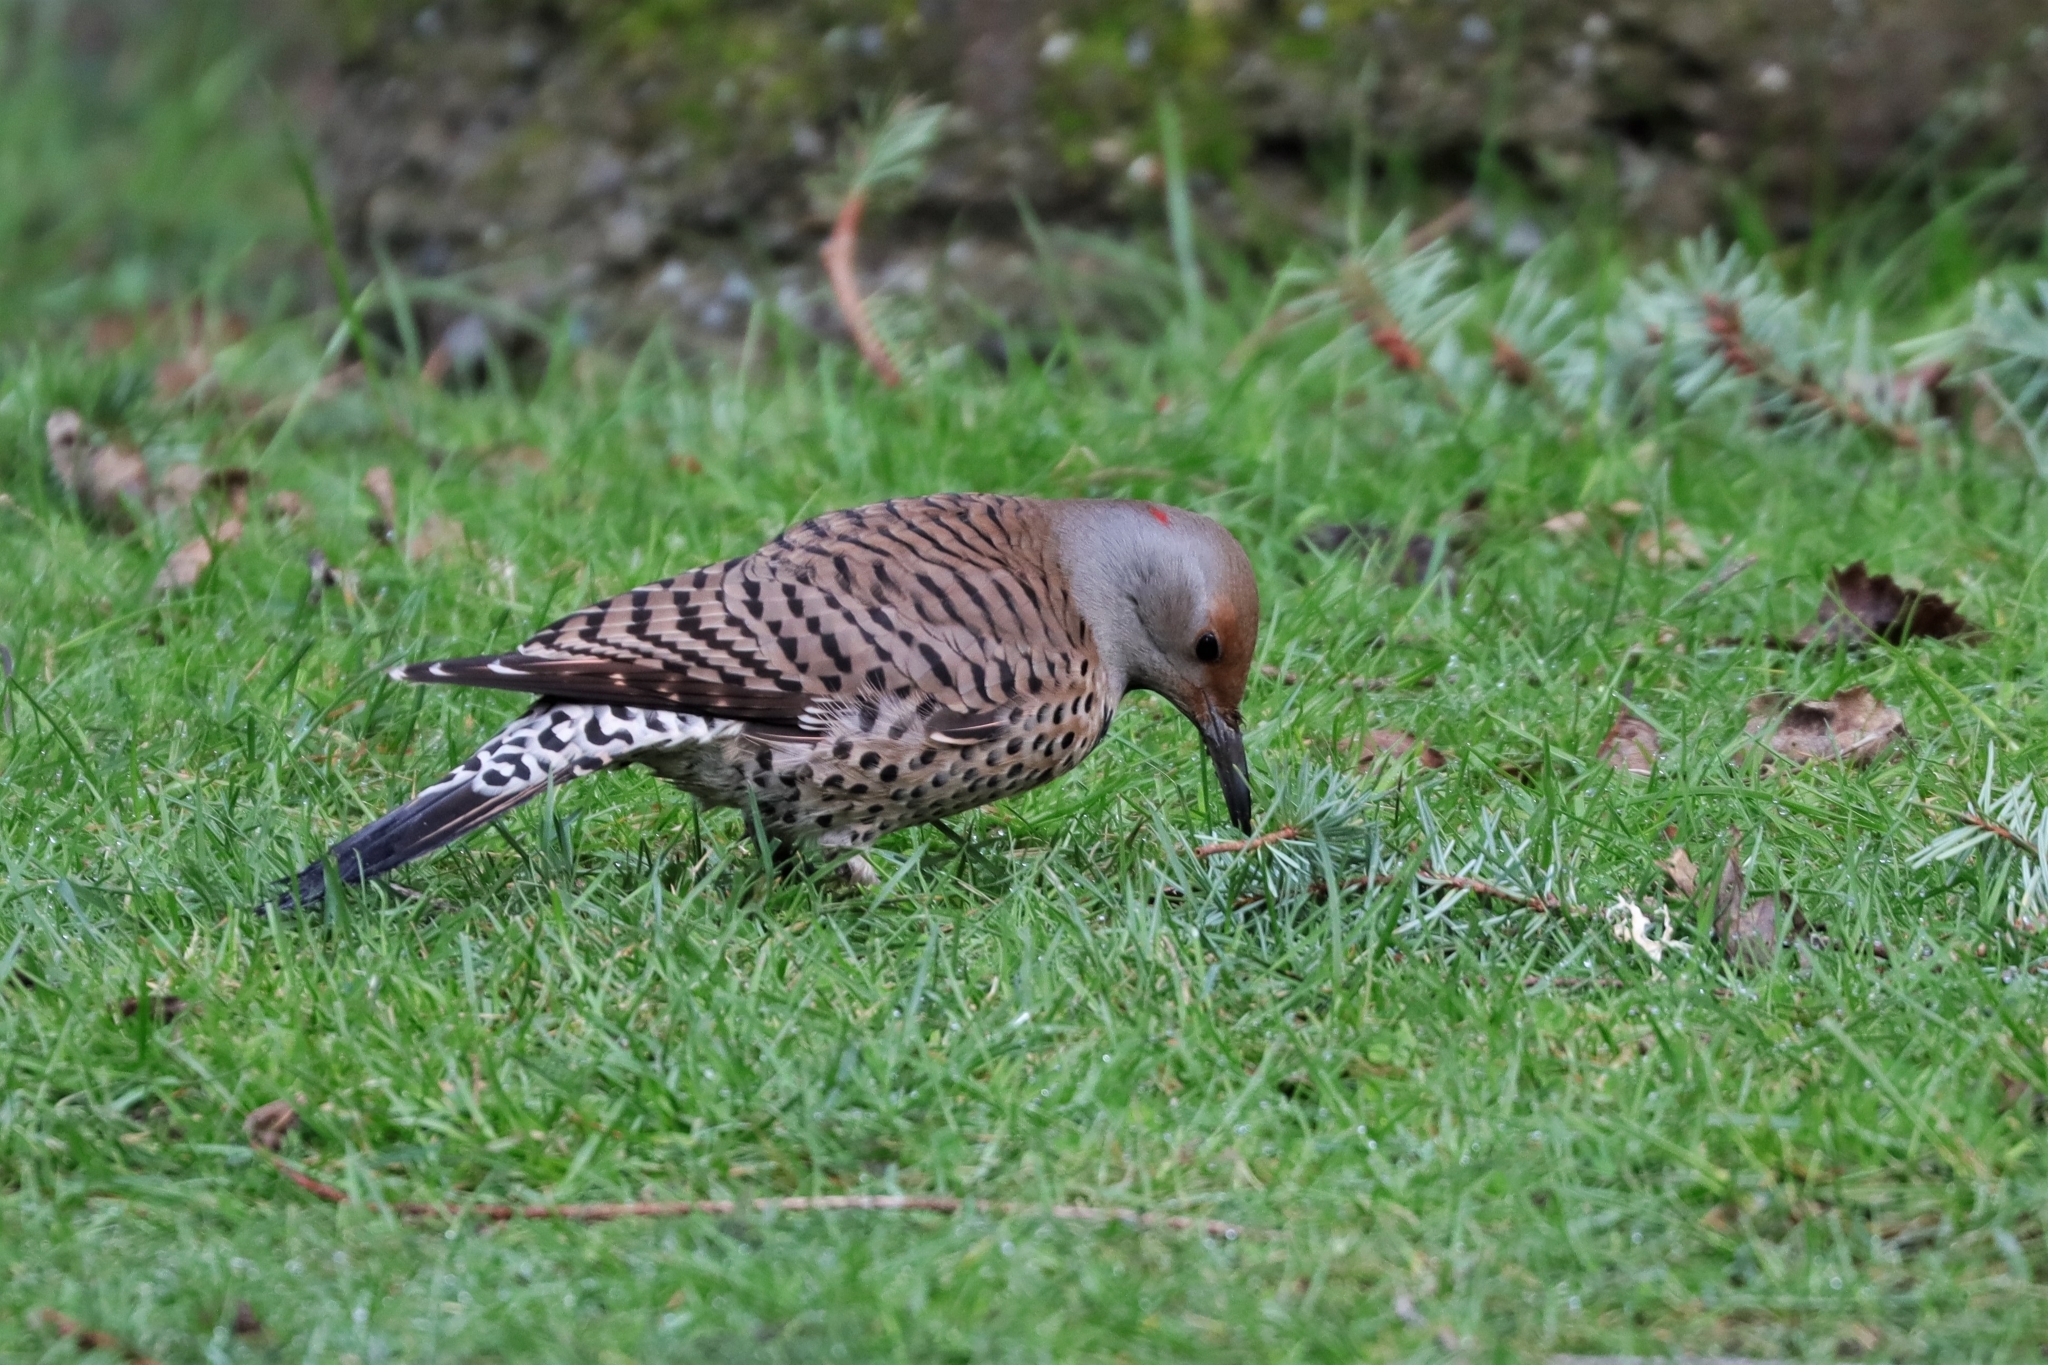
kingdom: Animalia
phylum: Chordata
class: Aves
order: Piciformes
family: Picidae
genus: Colaptes
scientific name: Colaptes auratus
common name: Northern flicker
